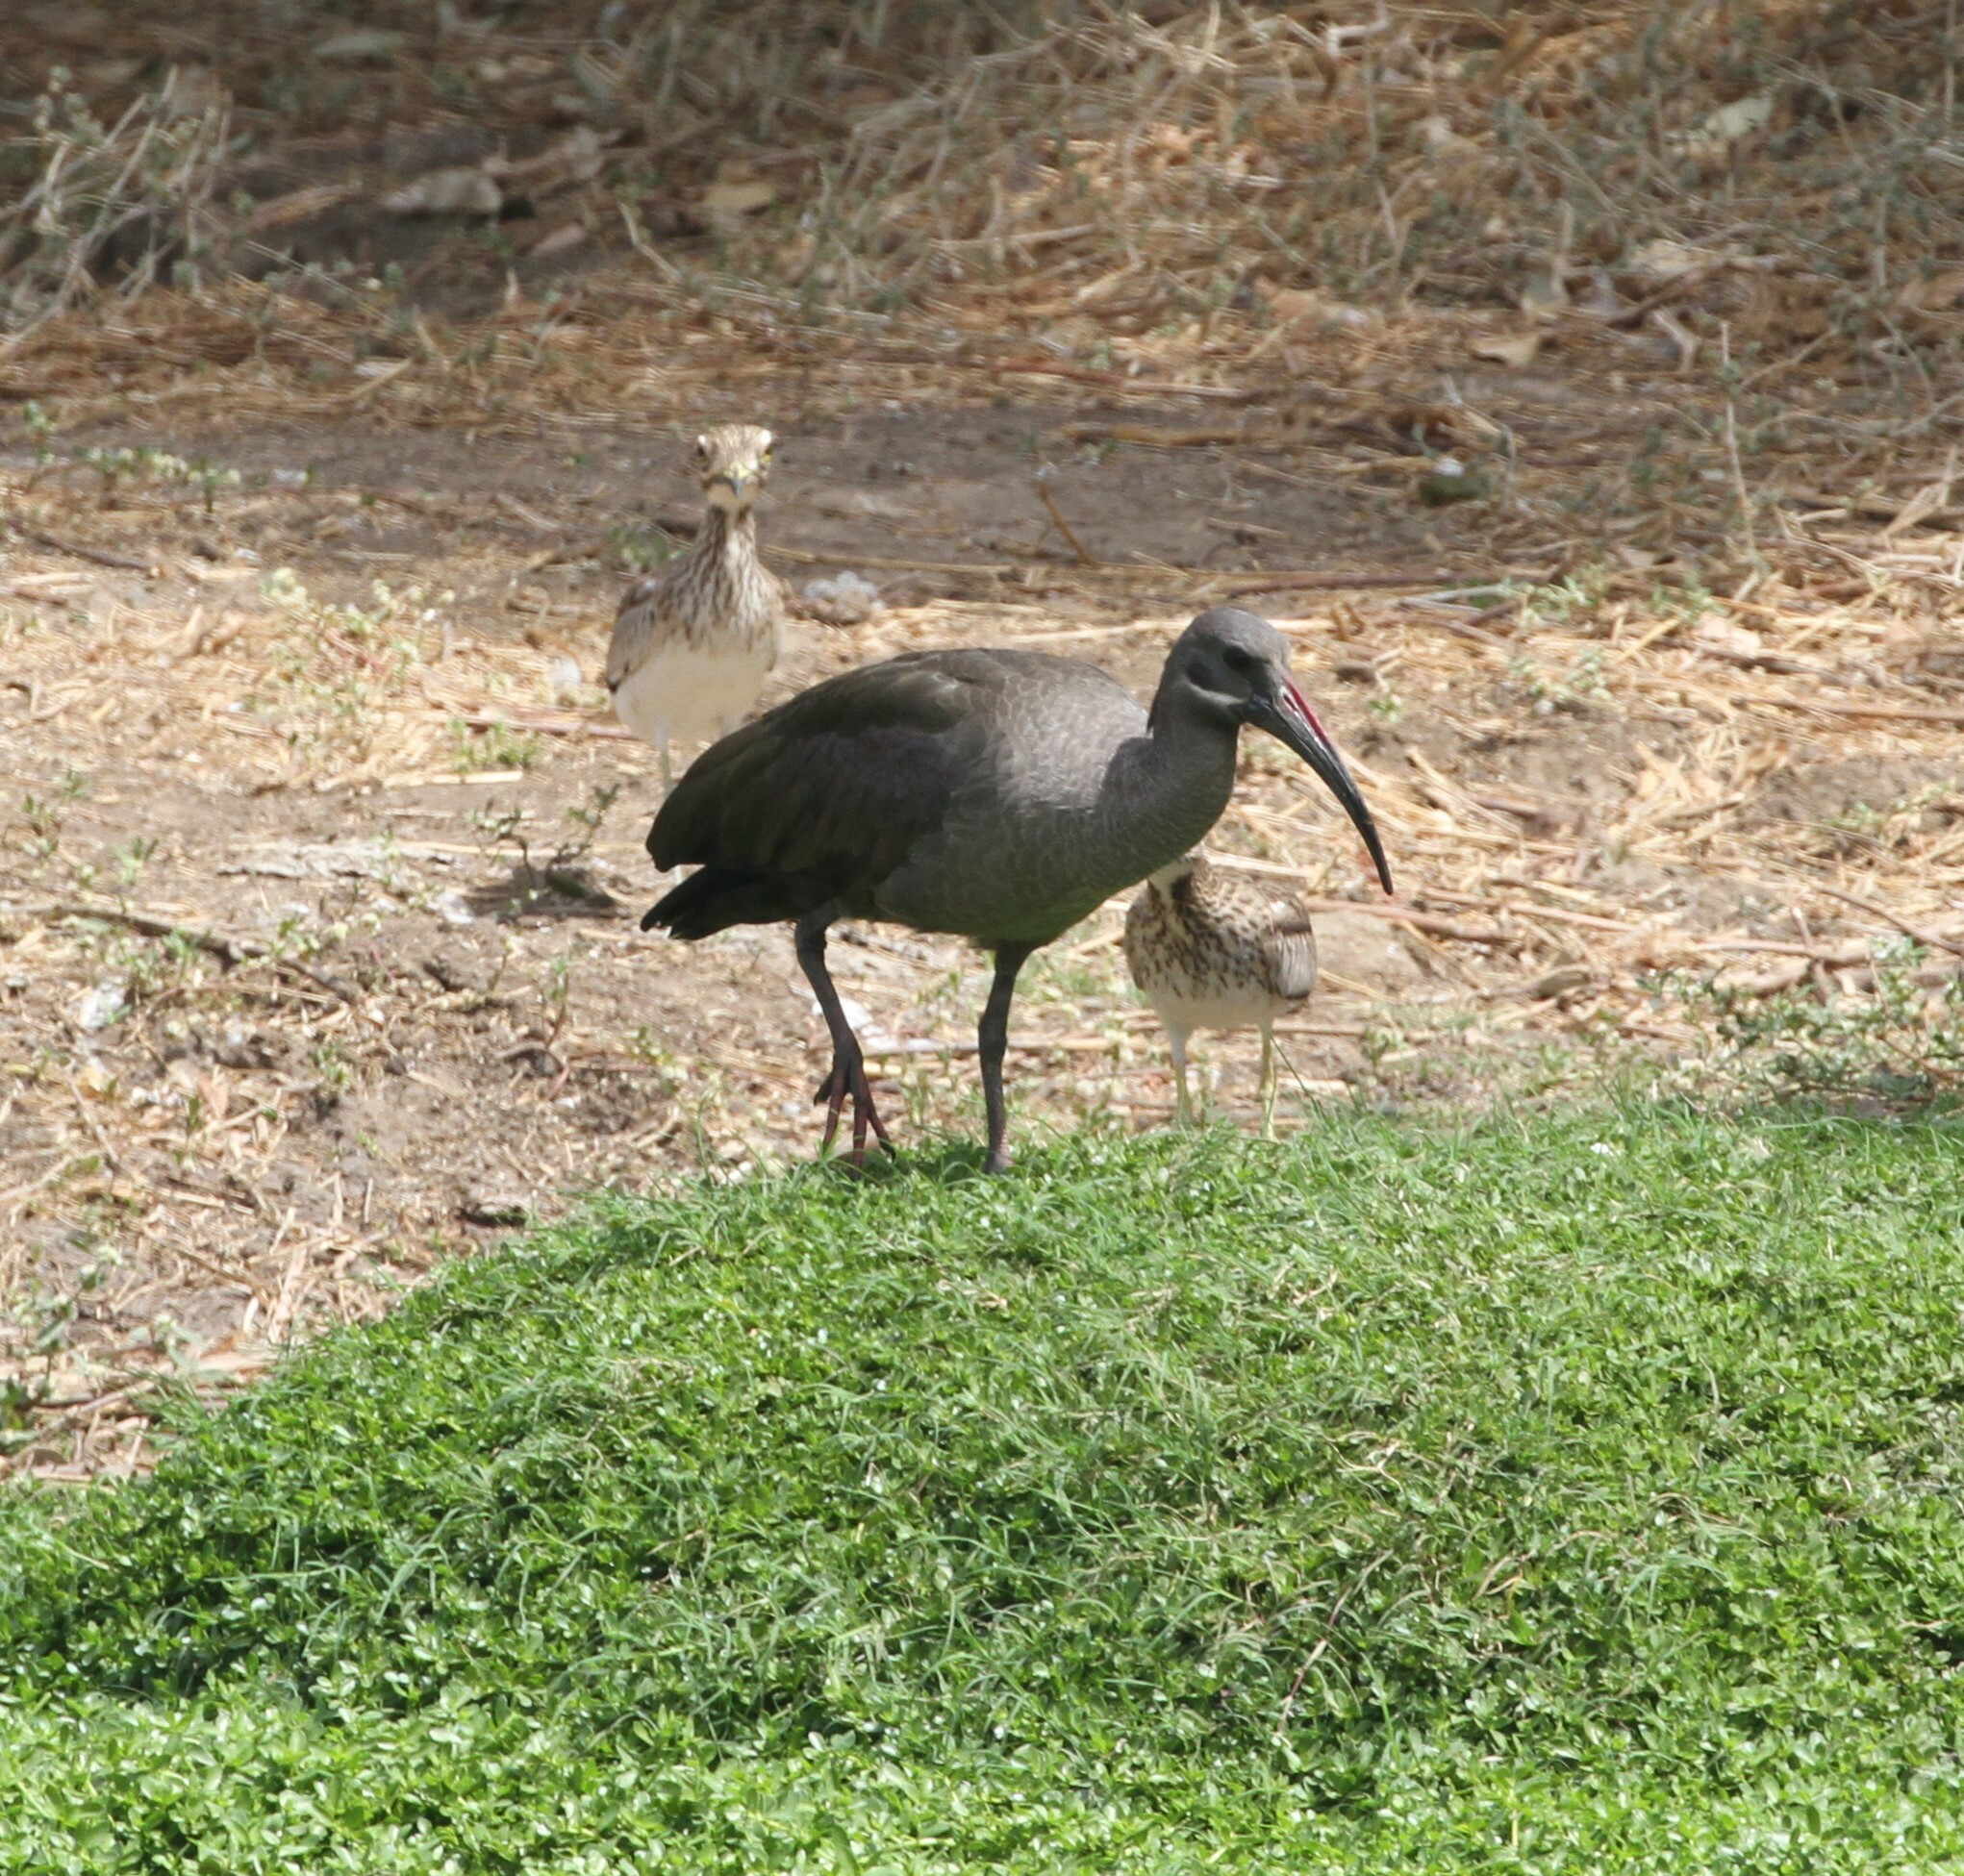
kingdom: Animalia
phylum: Chordata
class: Aves
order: Pelecaniformes
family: Threskiornithidae
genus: Bostrychia
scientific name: Bostrychia hagedash
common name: Hadada ibis
